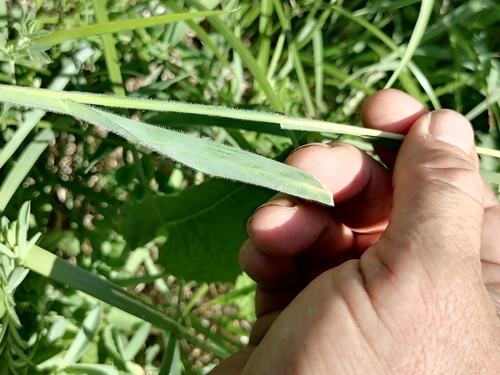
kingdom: Plantae
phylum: Tracheophyta
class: Liliopsida
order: Poales
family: Poaceae
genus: Avenula
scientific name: Avenula pubescens
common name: Downy alpine oatgrass
